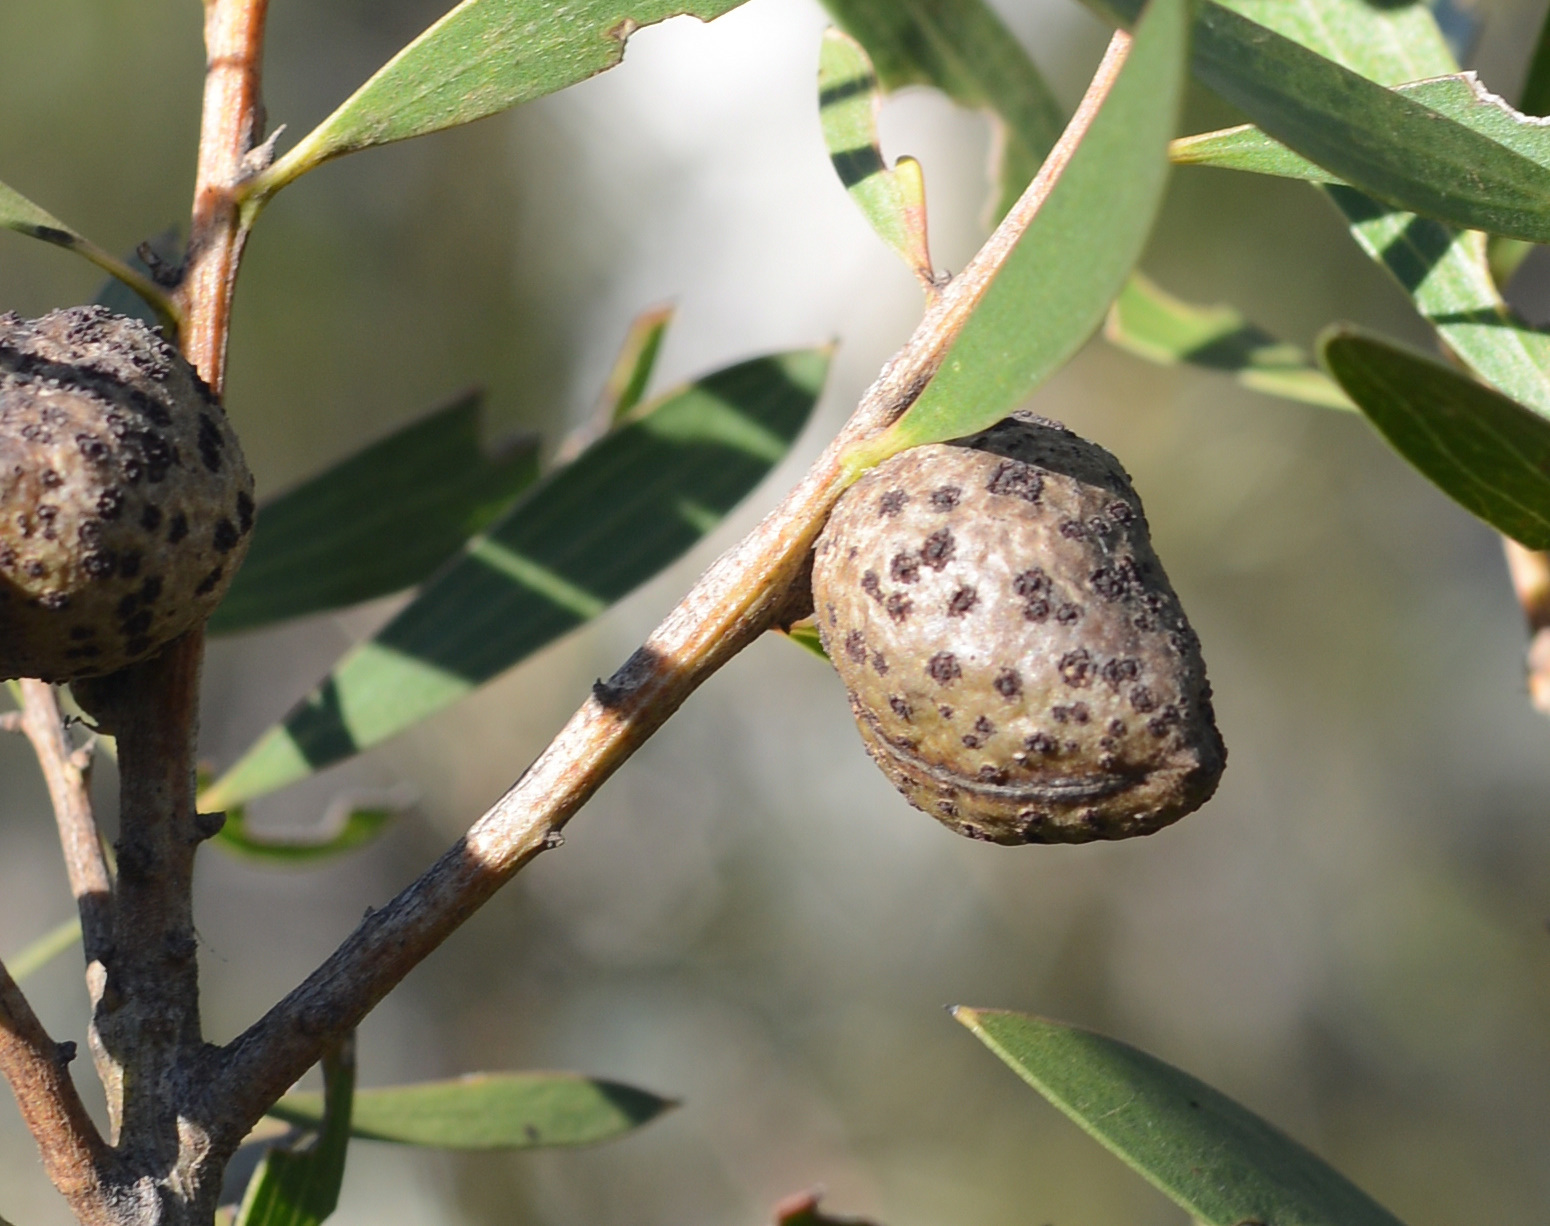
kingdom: Plantae
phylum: Tracheophyta
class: Magnoliopsida
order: Proteales
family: Proteaceae
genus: Hakea
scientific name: Hakea dactyloides
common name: Finger hakea
